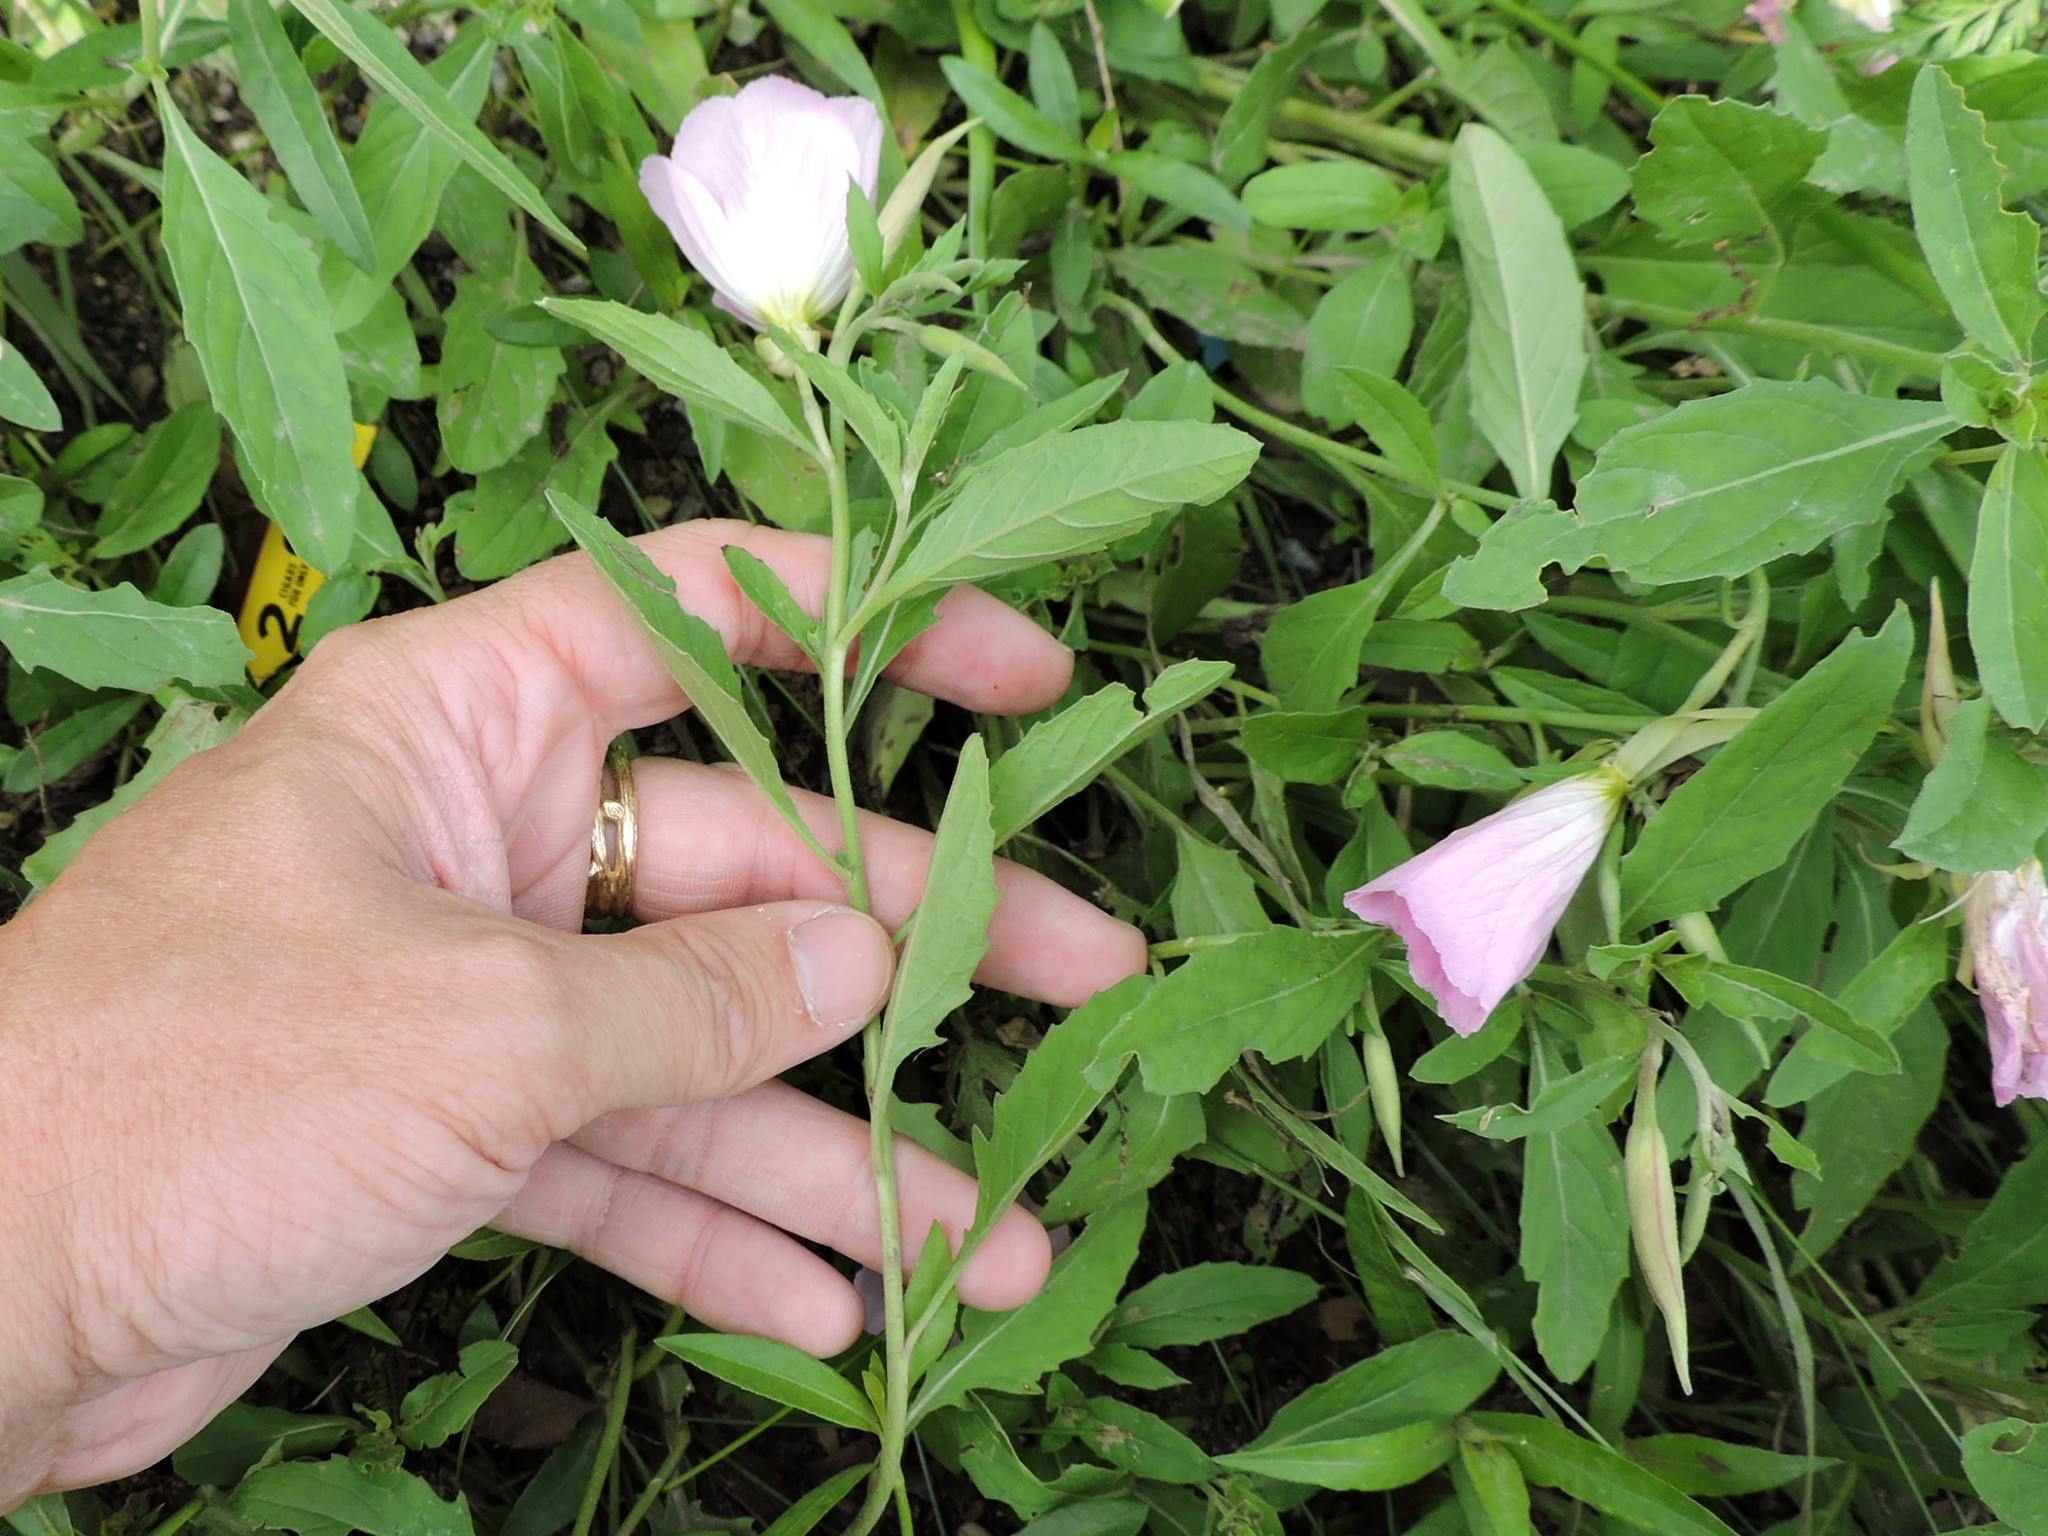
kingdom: Plantae
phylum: Tracheophyta
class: Magnoliopsida
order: Myrtales
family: Onagraceae
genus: Oenothera
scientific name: Oenothera speciosa
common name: White evening-primrose
